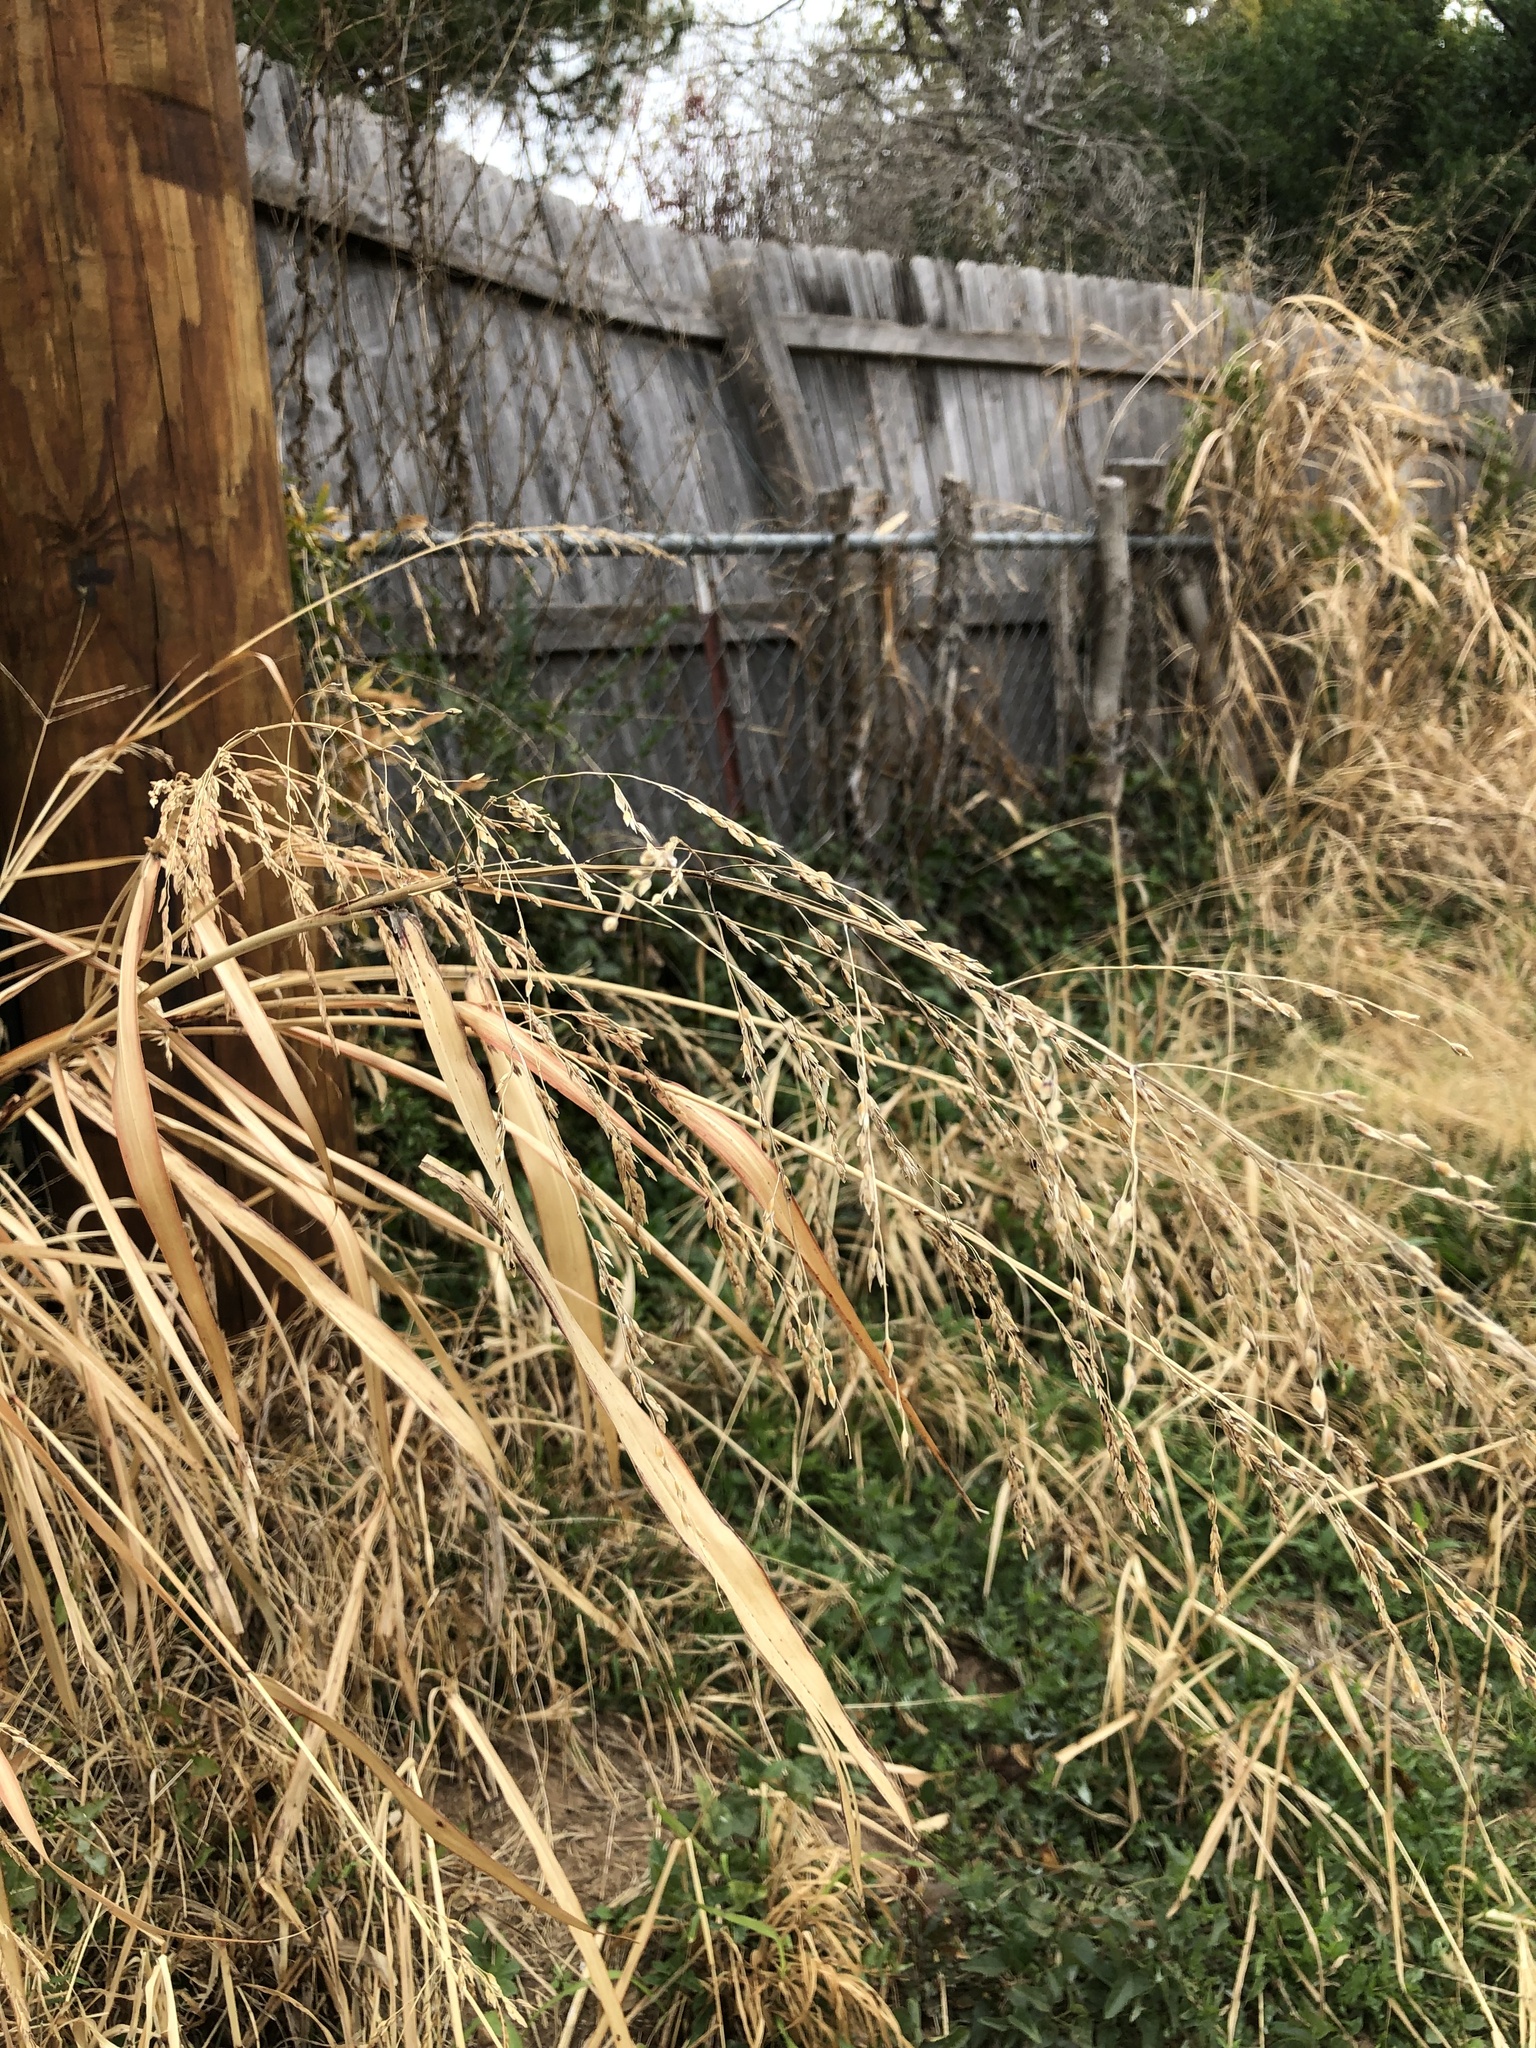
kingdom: Plantae
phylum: Tracheophyta
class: Liliopsida
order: Poales
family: Poaceae
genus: Sorghum
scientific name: Sorghum halepense
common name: Johnson-grass
